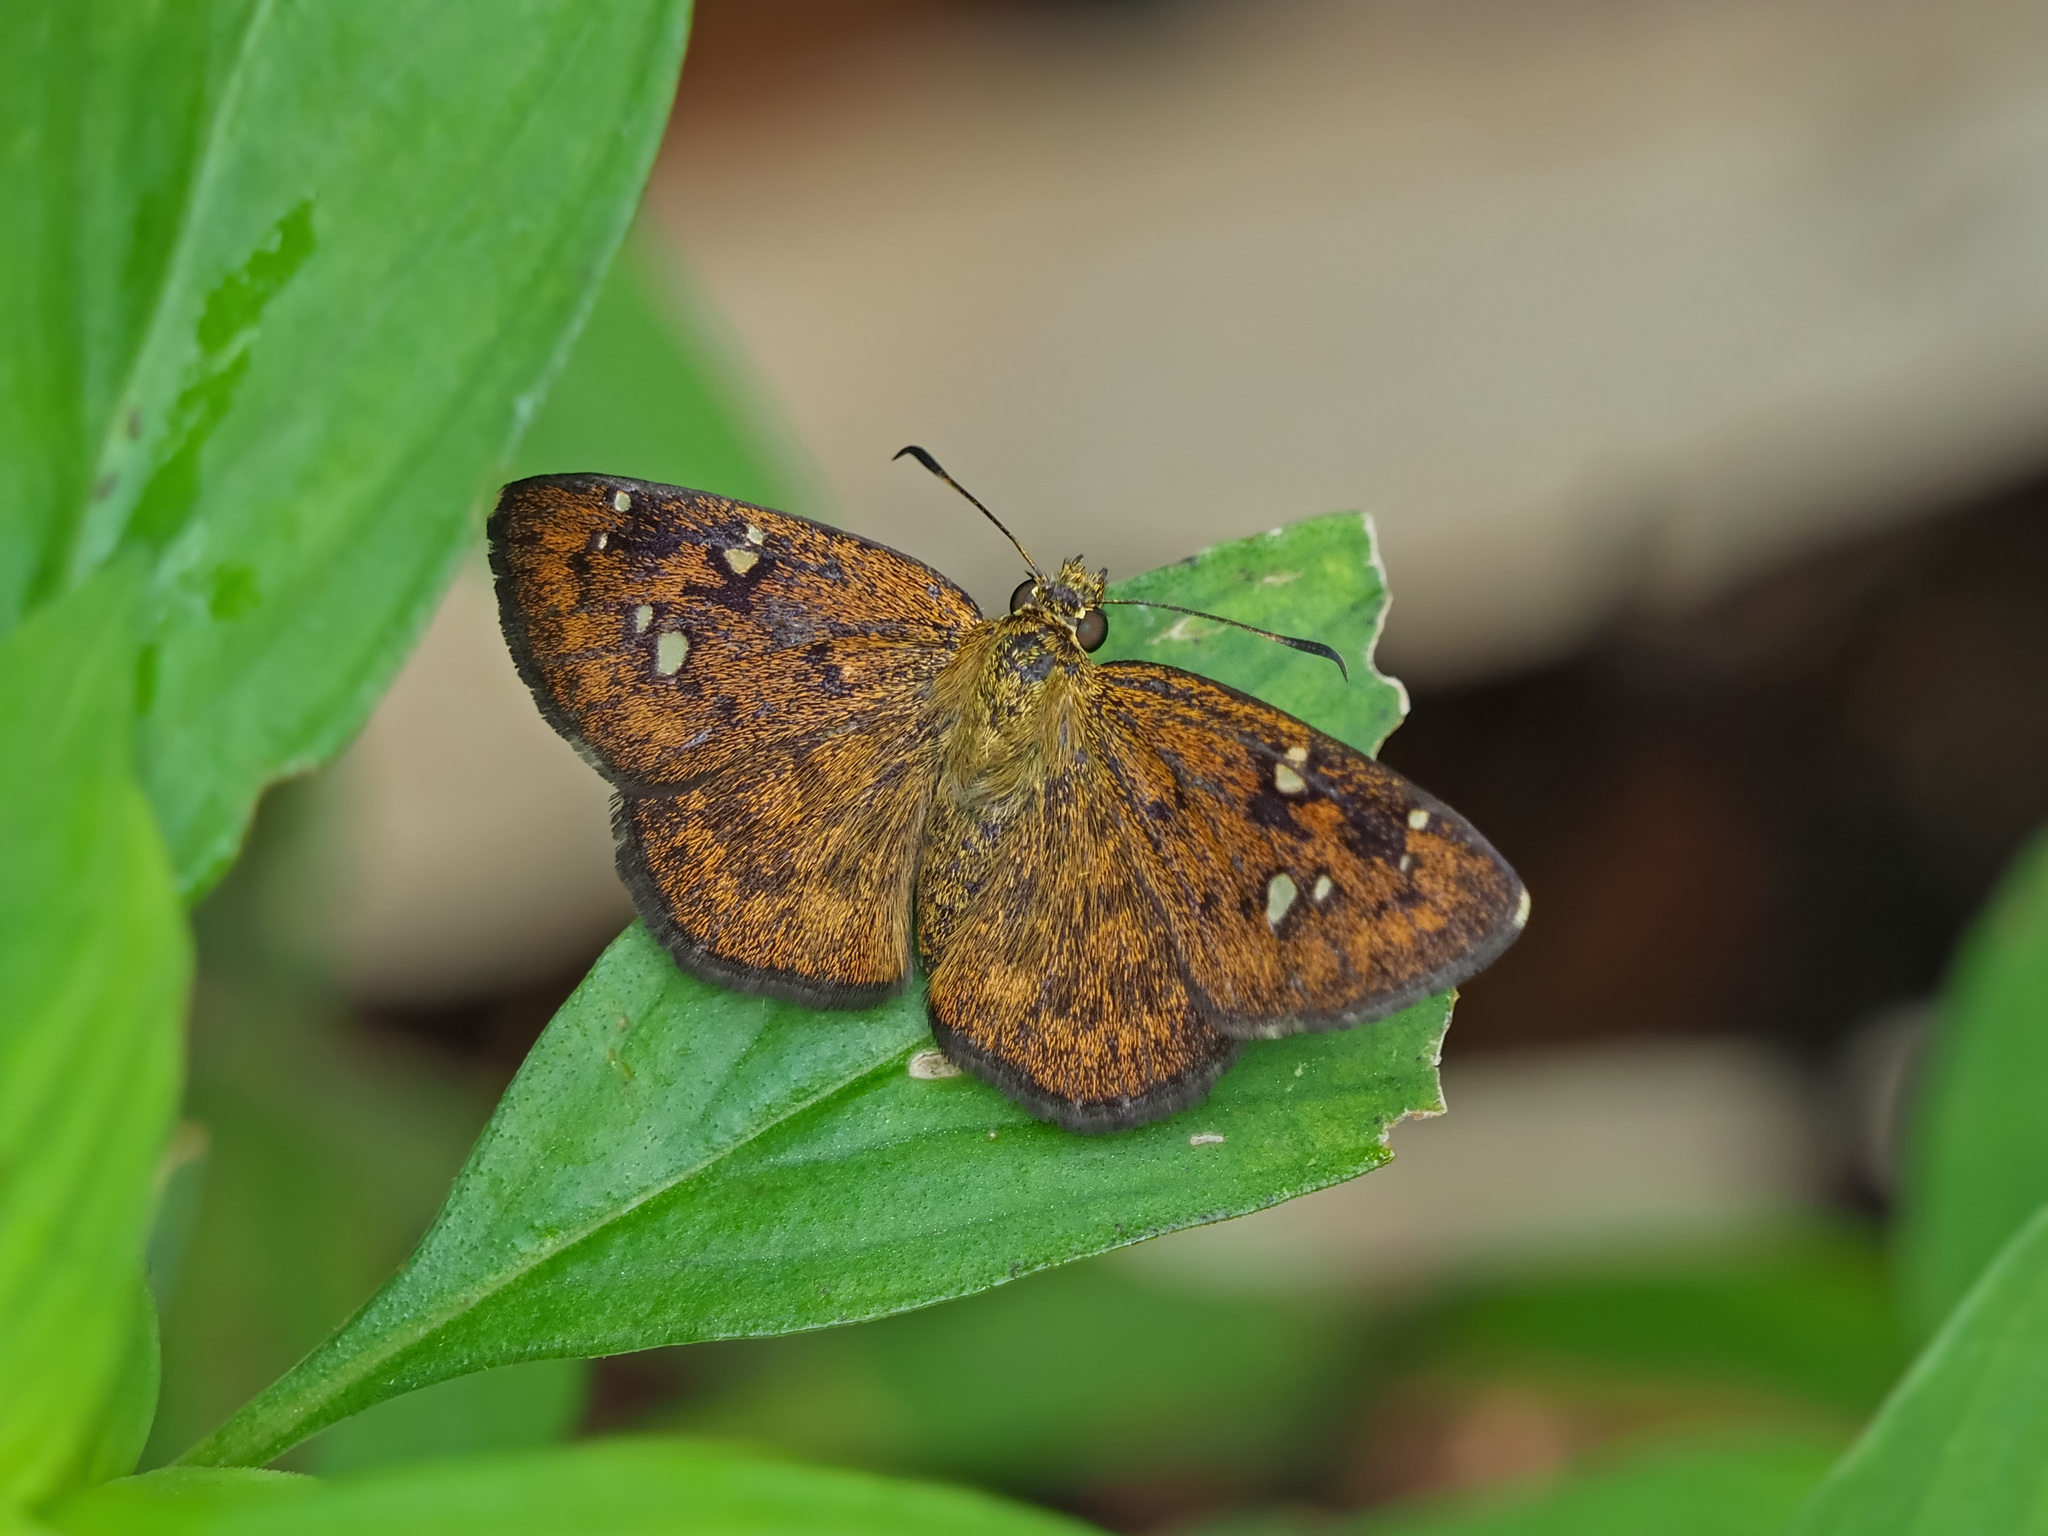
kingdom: Animalia
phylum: Arthropoda
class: Insecta
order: Lepidoptera
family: Hesperiidae
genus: Pseudocoladenia
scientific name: Pseudocoladenia dan
